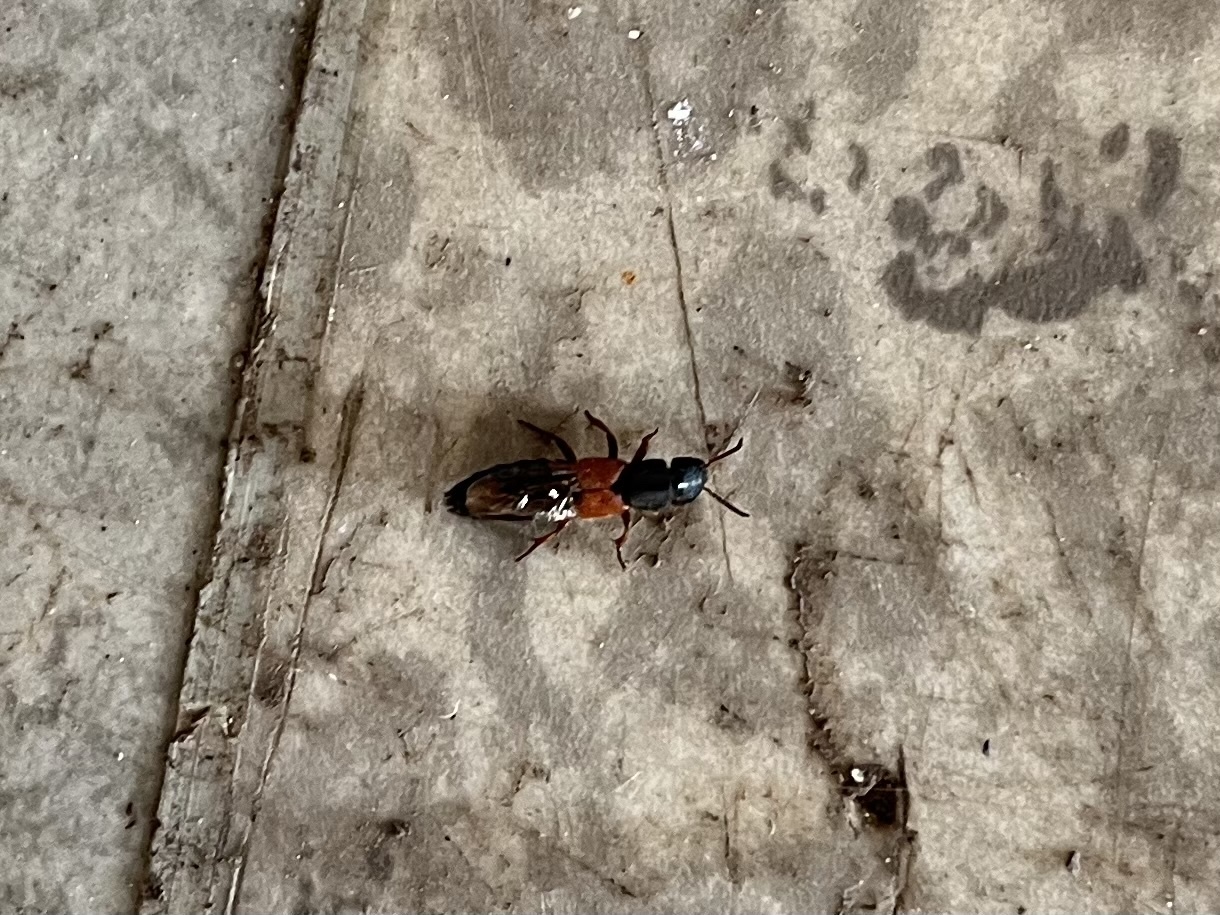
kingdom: Animalia
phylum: Arthropoda
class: Insecta
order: Coleoptera
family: Staphylinidae
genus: Platydracus
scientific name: Platydracus stercorarius
